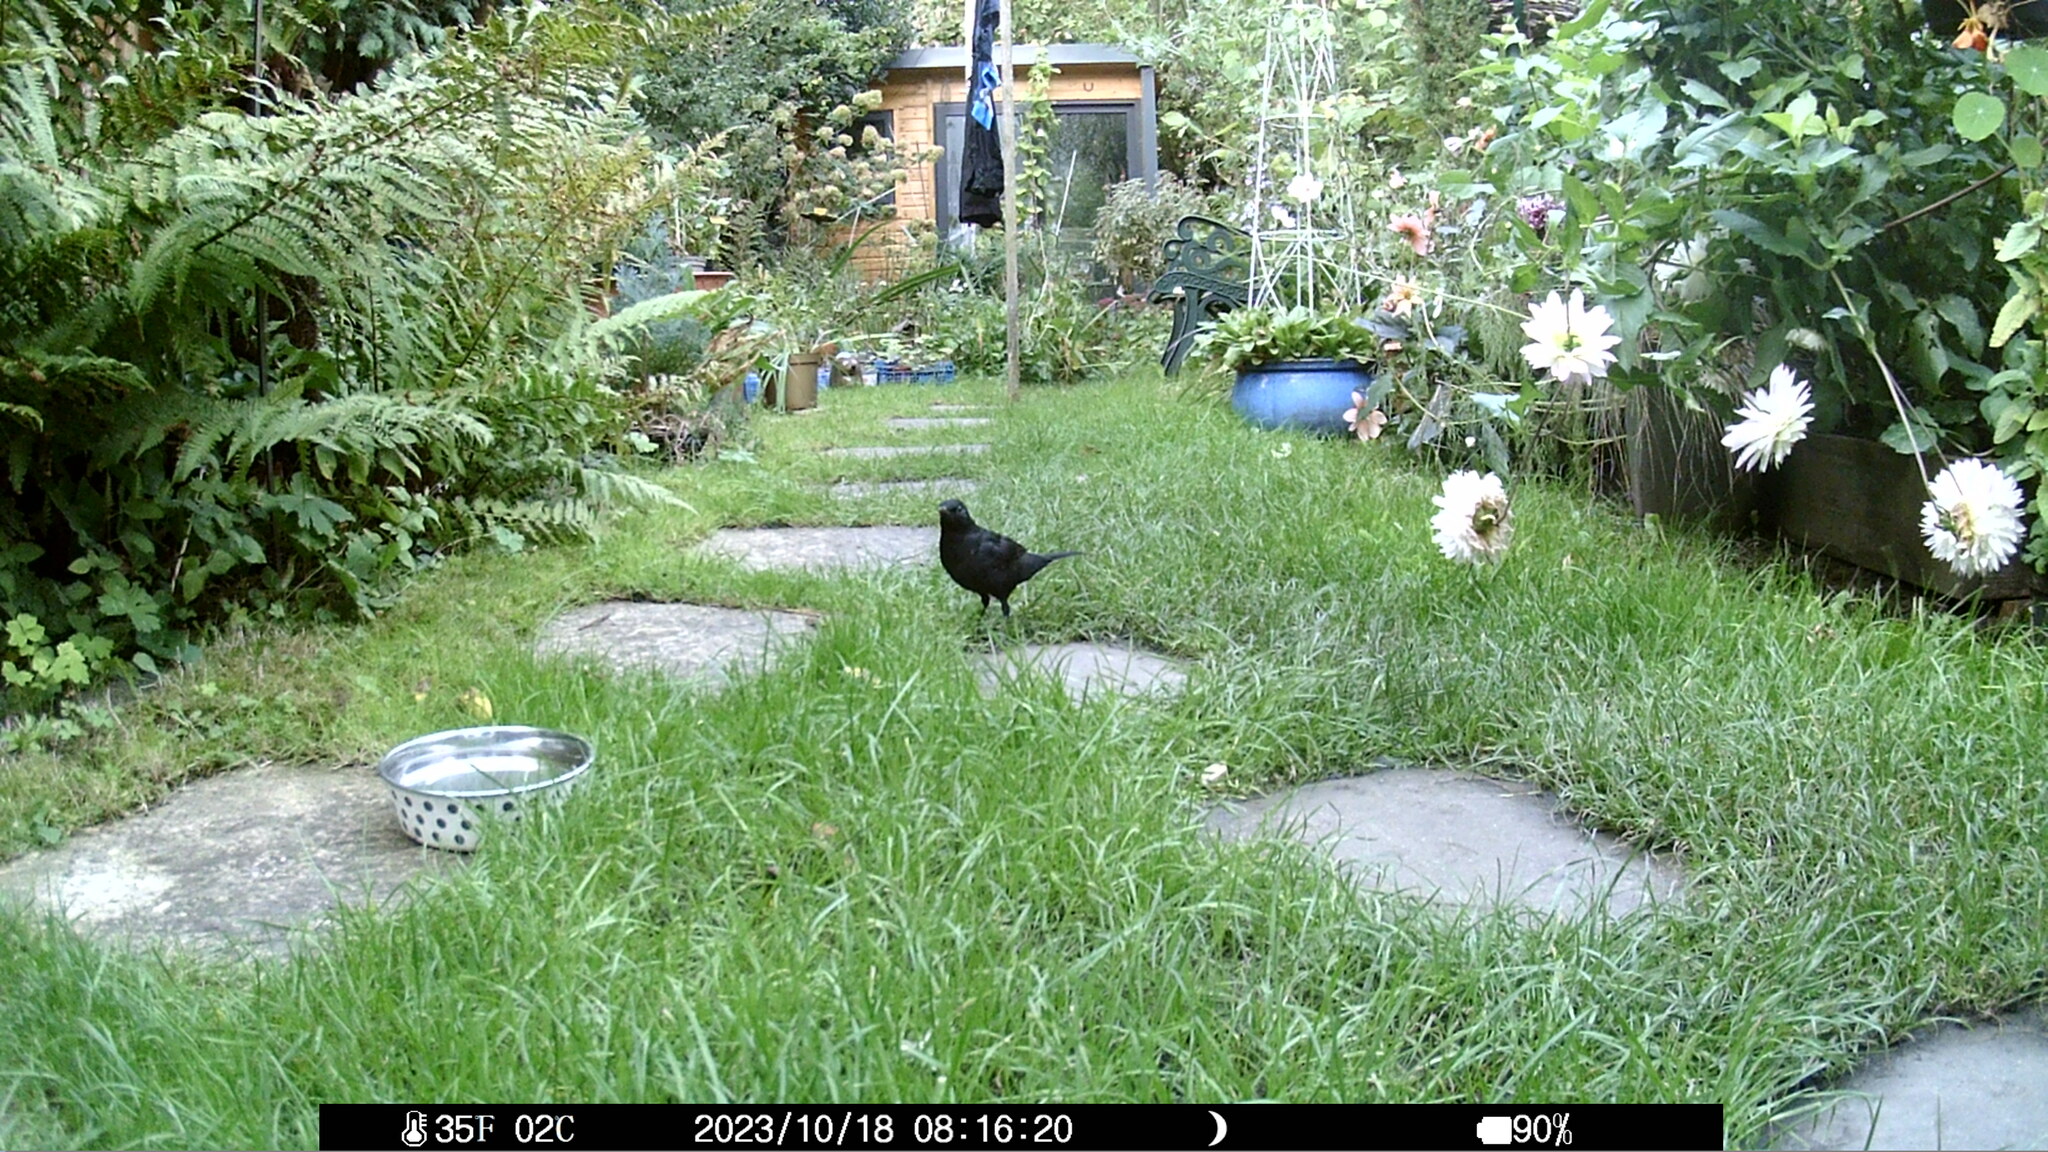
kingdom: Animalia
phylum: Chordata
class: Aves
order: Passeriformes
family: Turdidae
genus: Turdus
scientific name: Turdus merula
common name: Common blackbird
